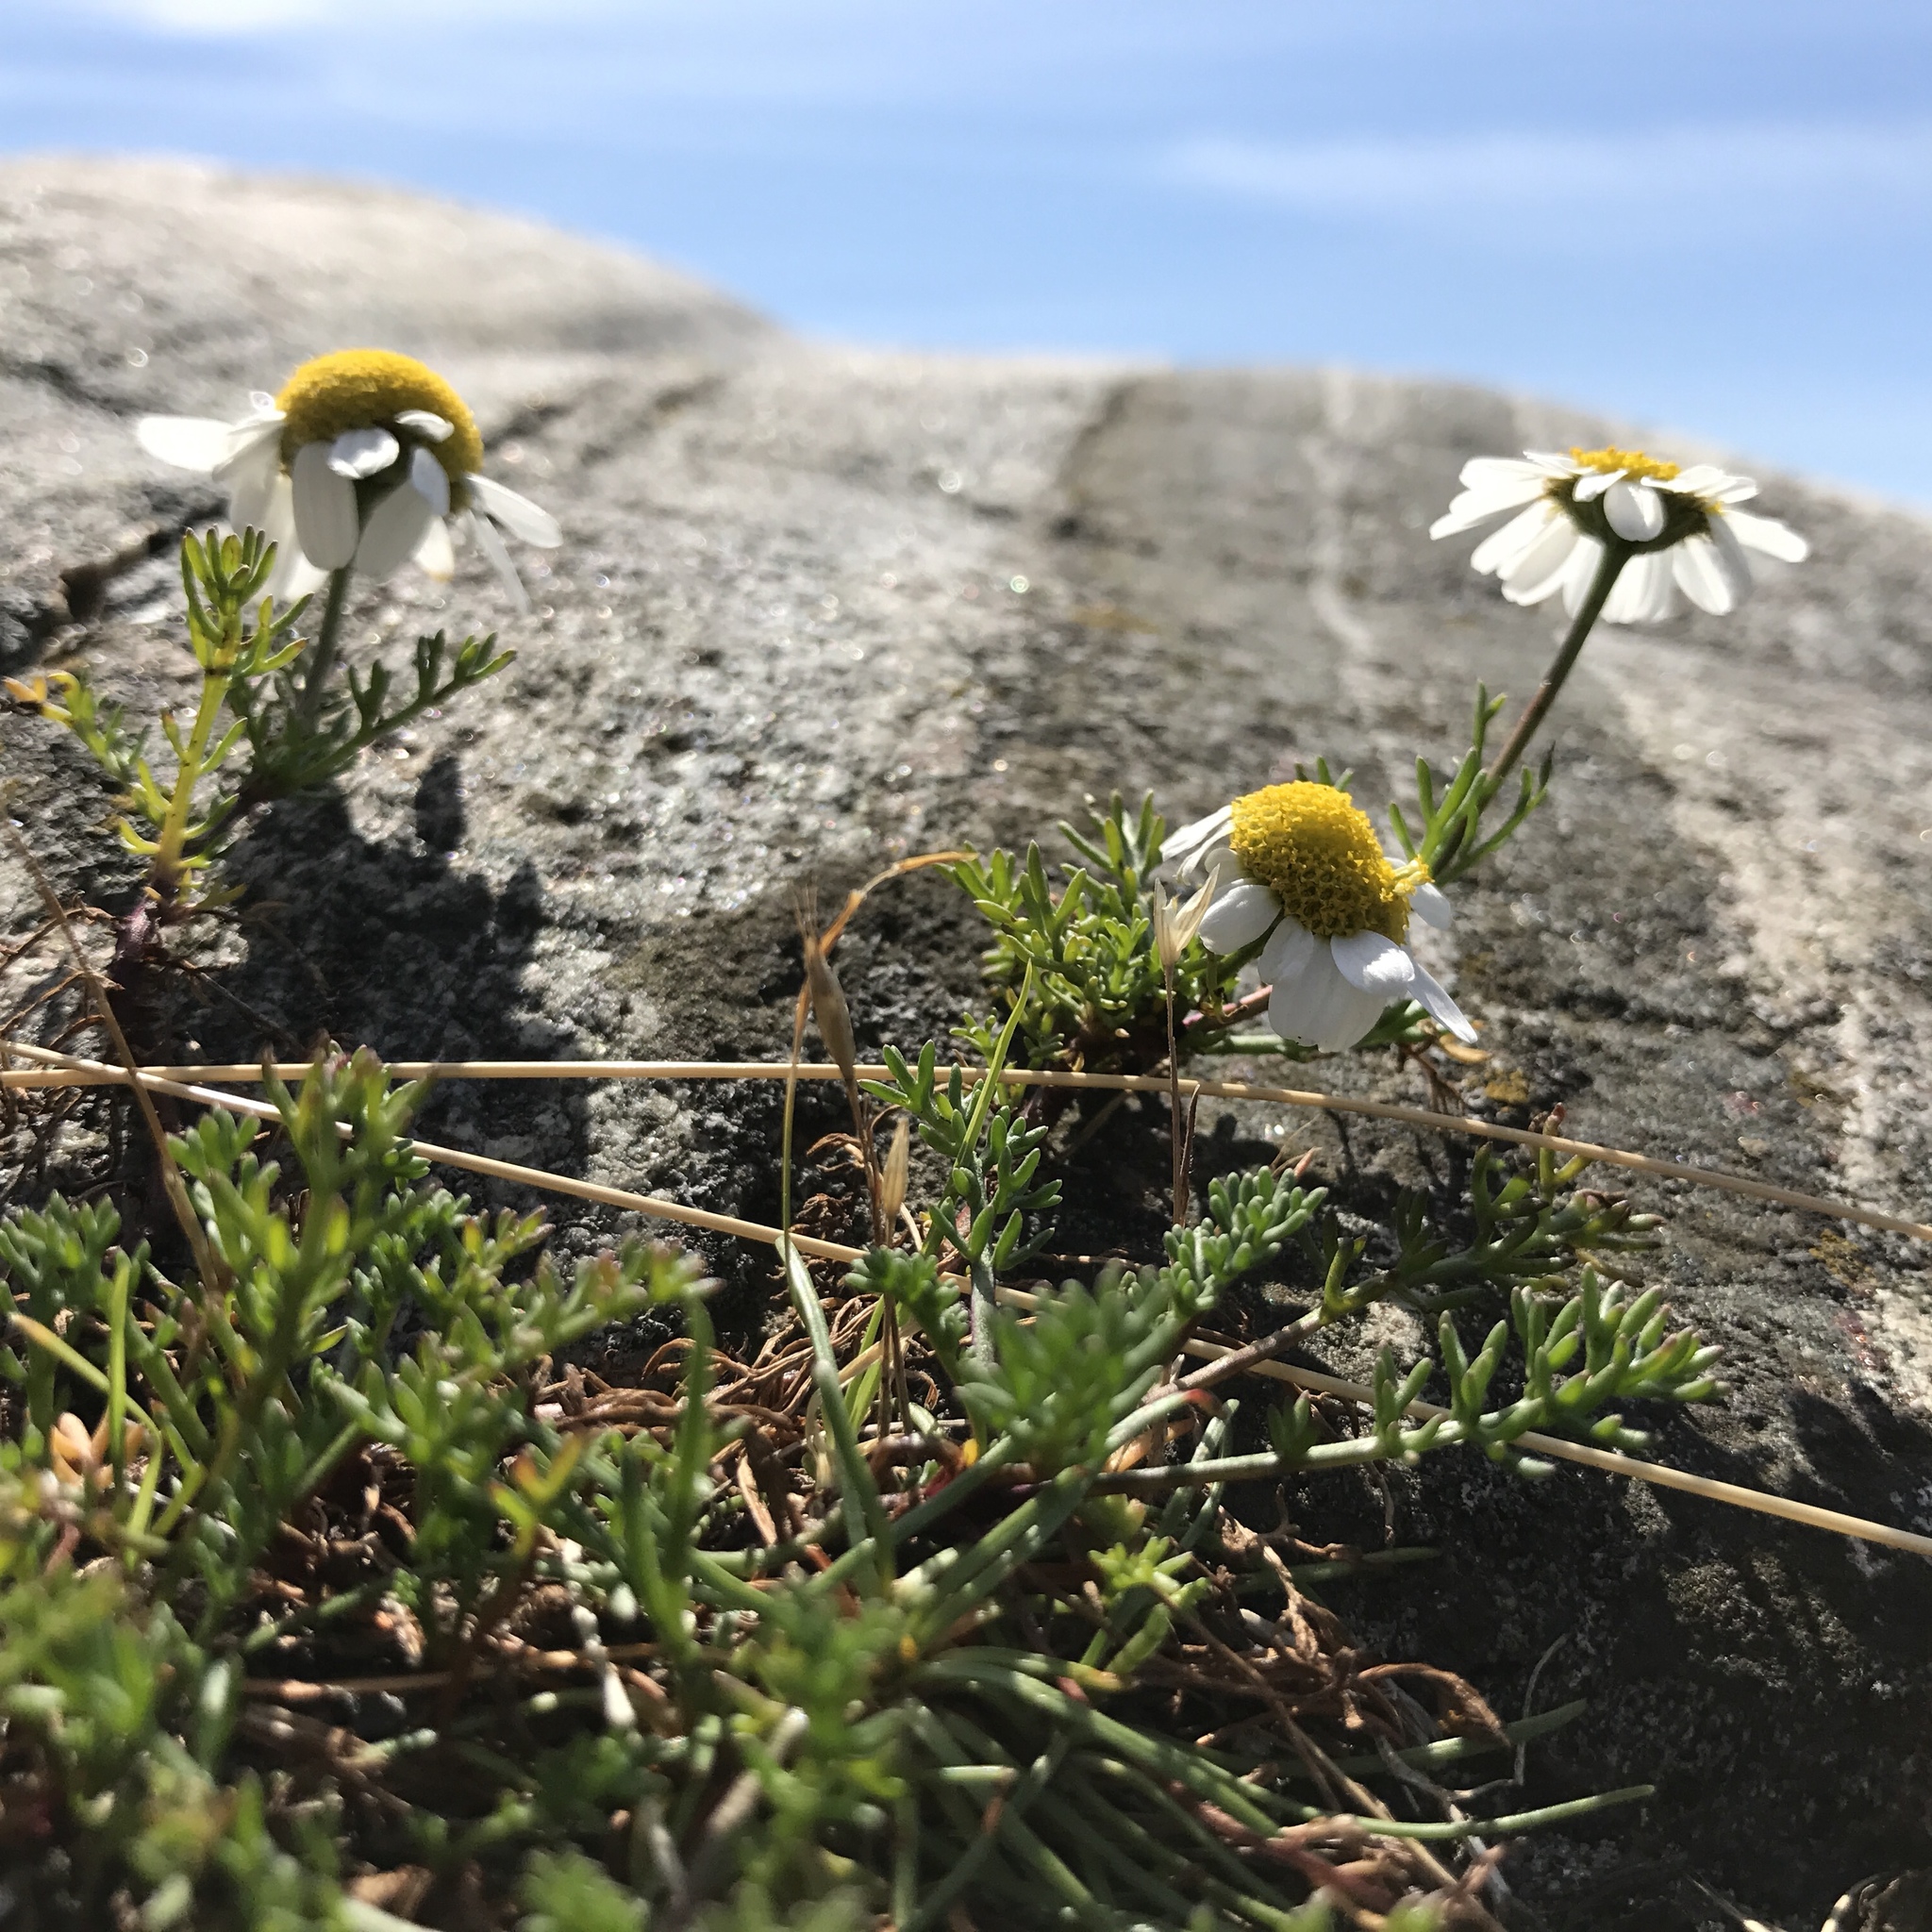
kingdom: Plantae
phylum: Tracheophyta
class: Magnoliopsida
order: Asterales
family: Asteraceae
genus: Tripleurospermum
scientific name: Tripleurospermum inodorum
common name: Scentless mayweed
